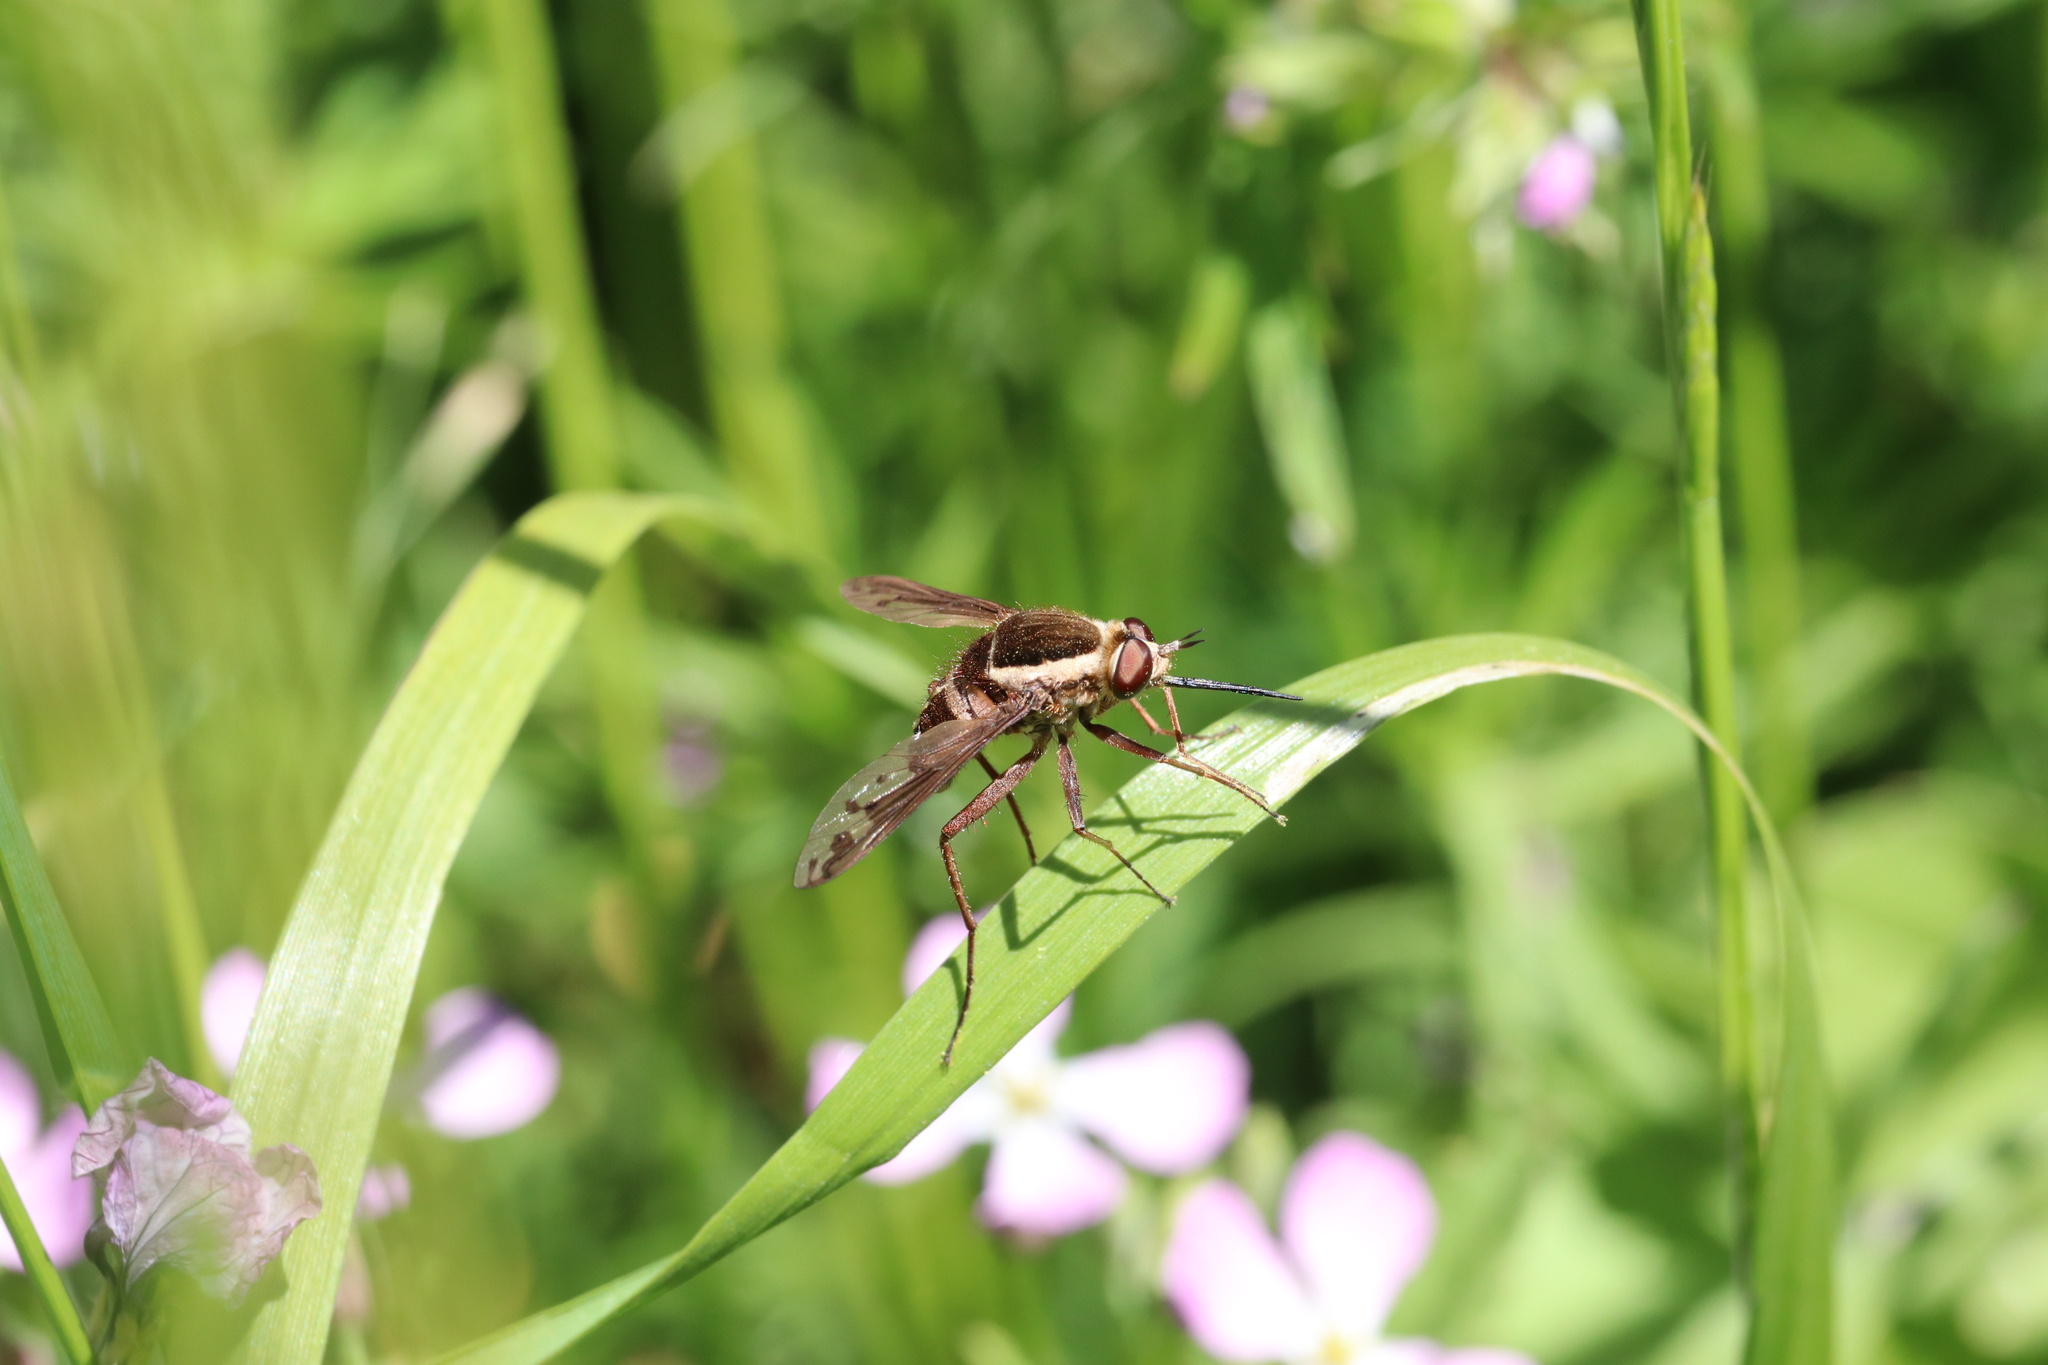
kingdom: Animalia
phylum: Arthropoda
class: Insecta
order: Diptera
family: Bombyliidae
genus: Acrophthalmyda
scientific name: Acrophthalmyda paulseni
